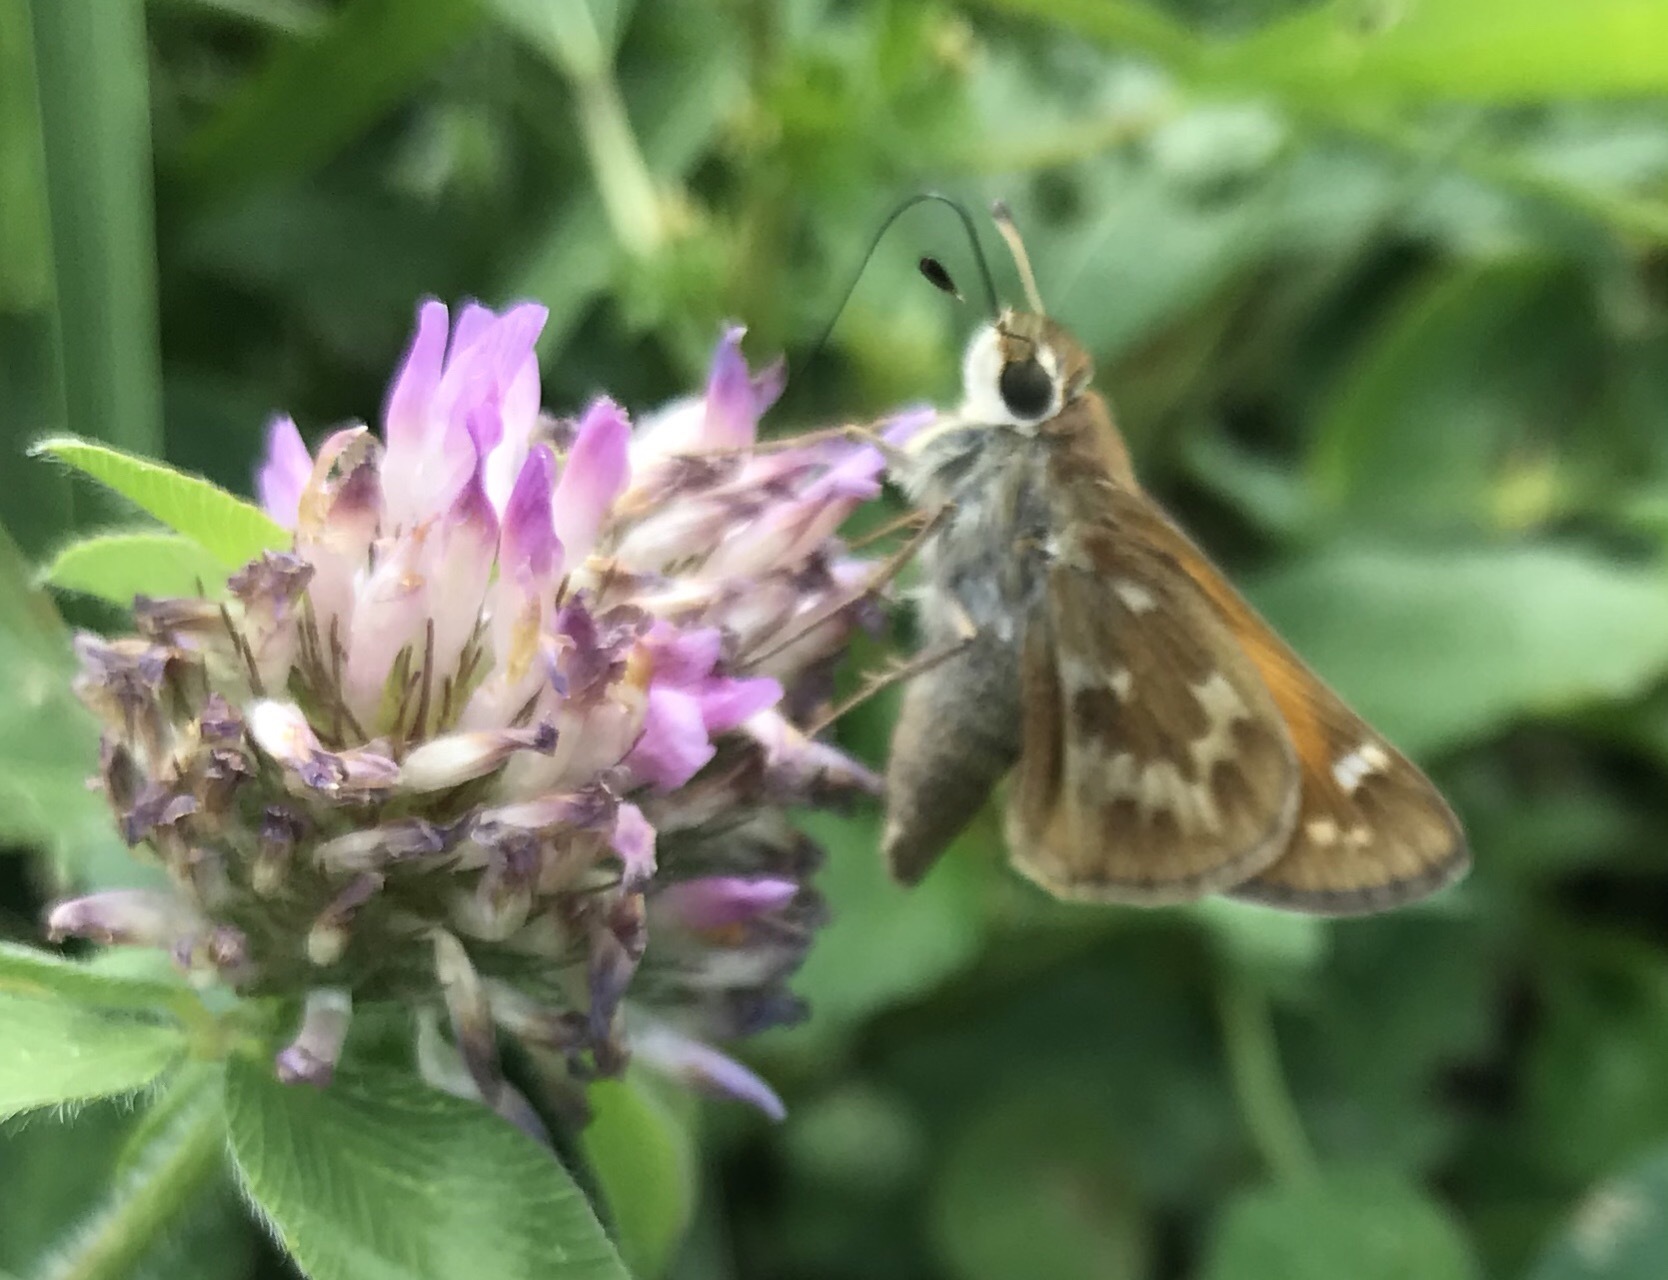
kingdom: Animalia
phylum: Arthropoda
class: Insecta
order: Lepidoptera
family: Hesperiidae
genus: Atalopedes
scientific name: Atalopedes
